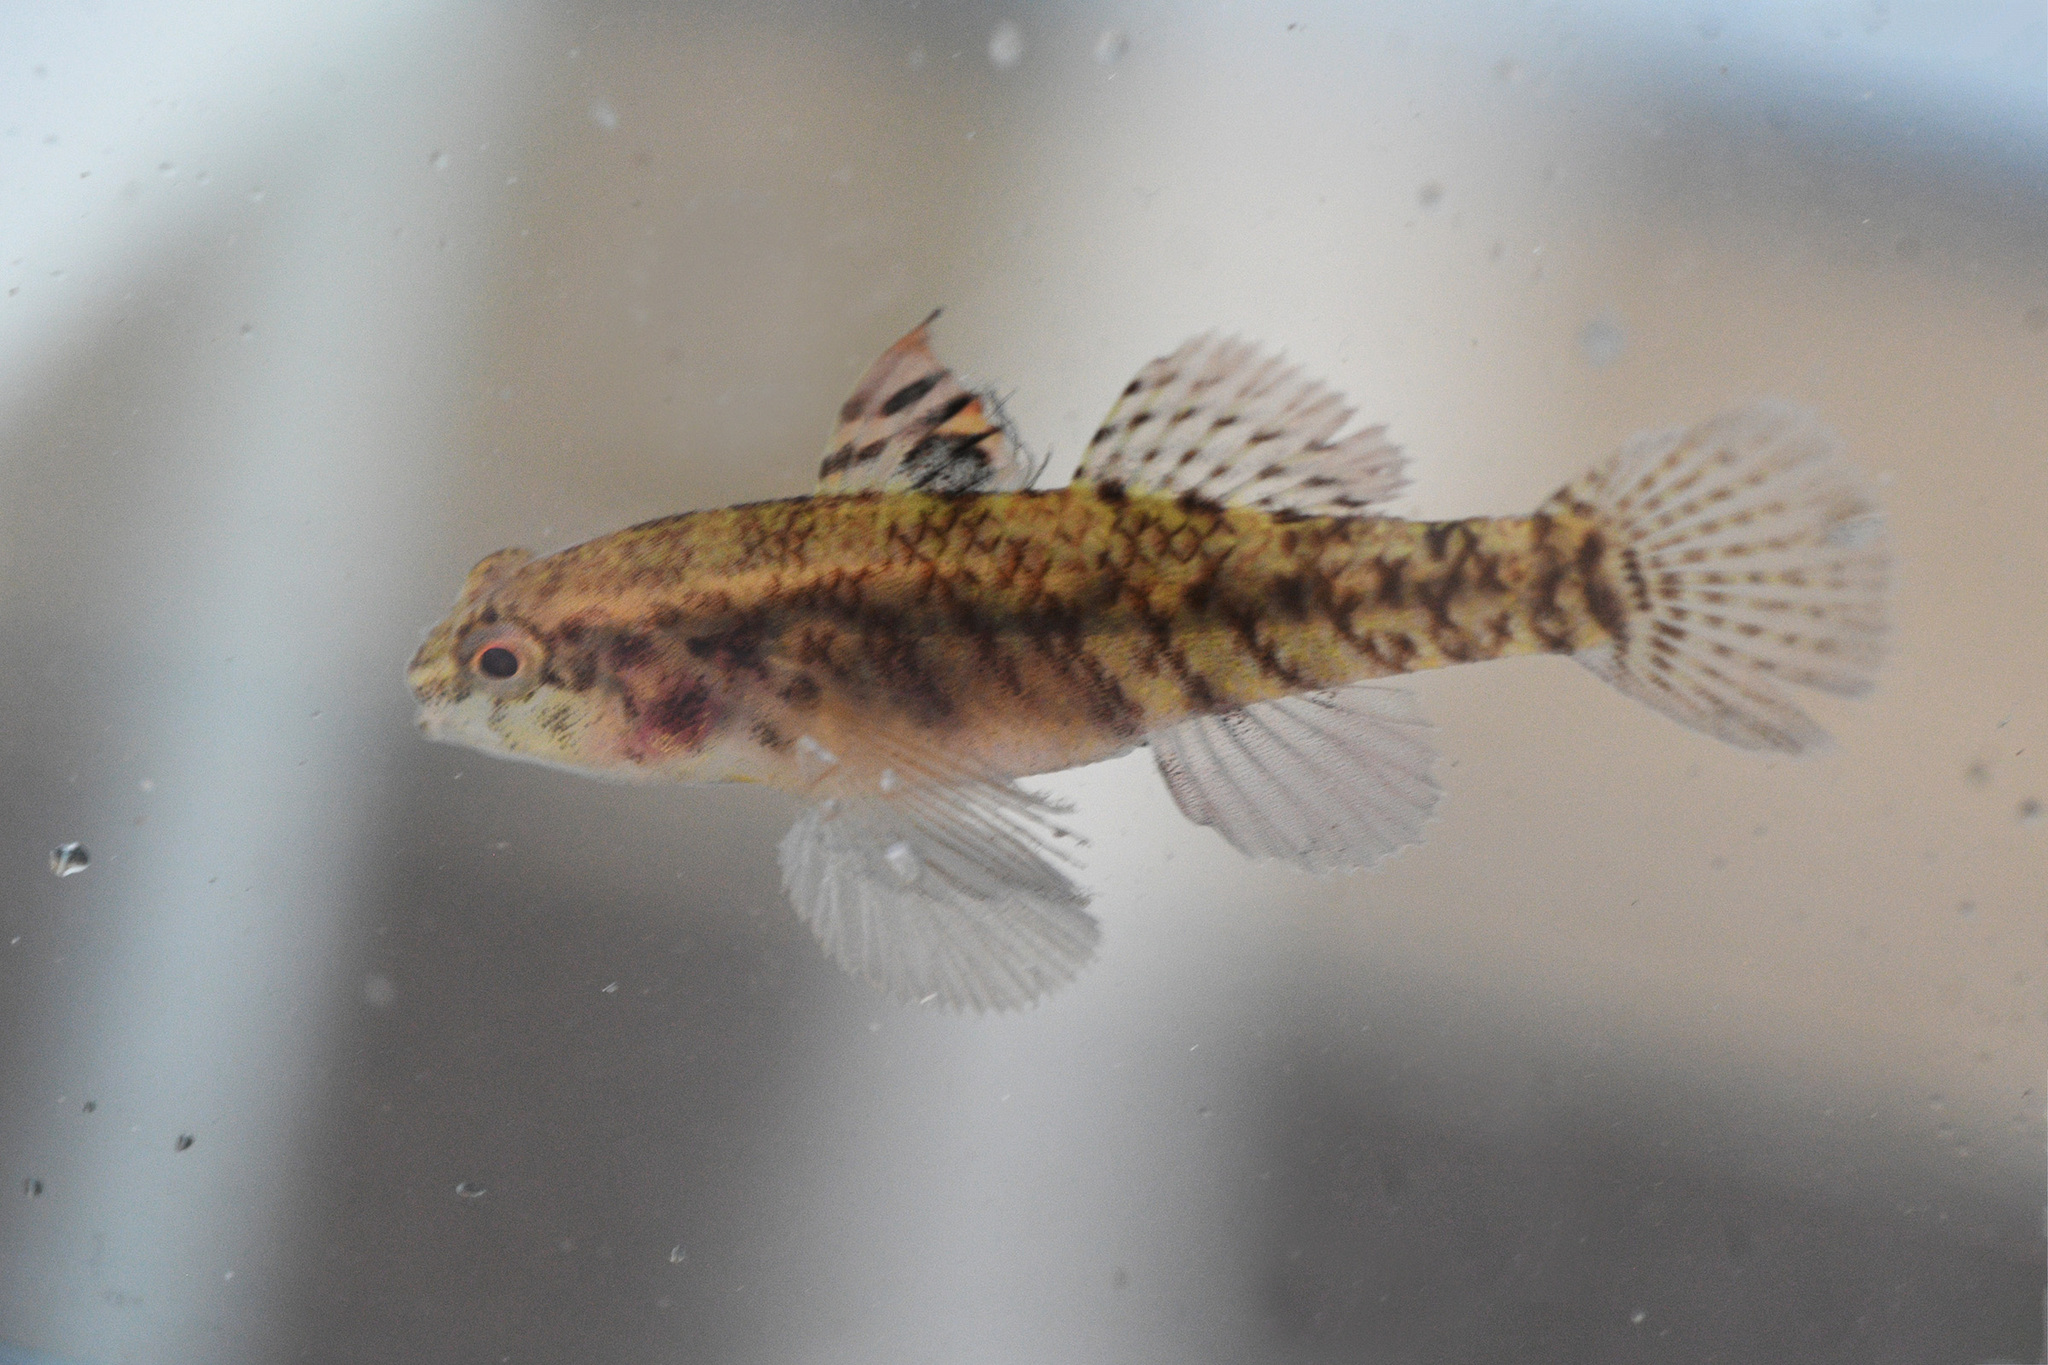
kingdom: Animalia
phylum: Chordata
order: Perciformes
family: Gobiidae
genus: Redigobius
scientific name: Redigobius macrostoma
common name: Compressed goby
